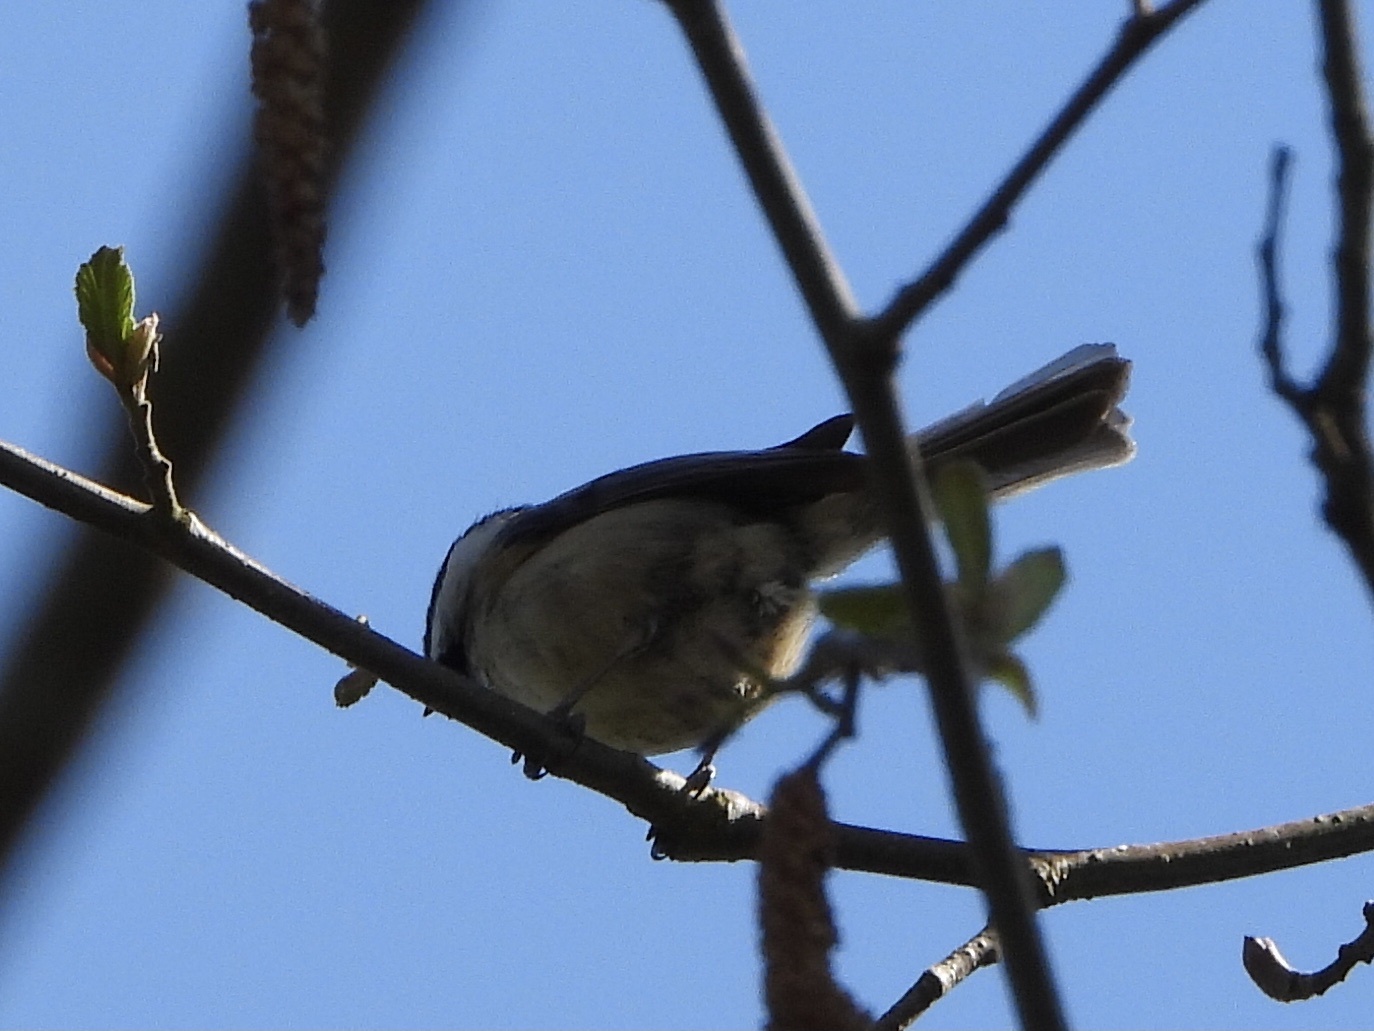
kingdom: Animalia
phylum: Chordata
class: Aves
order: Passeriformes
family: Paridae
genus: Poecile
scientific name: Poecile atricapillus
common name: Black-capped chickadee
